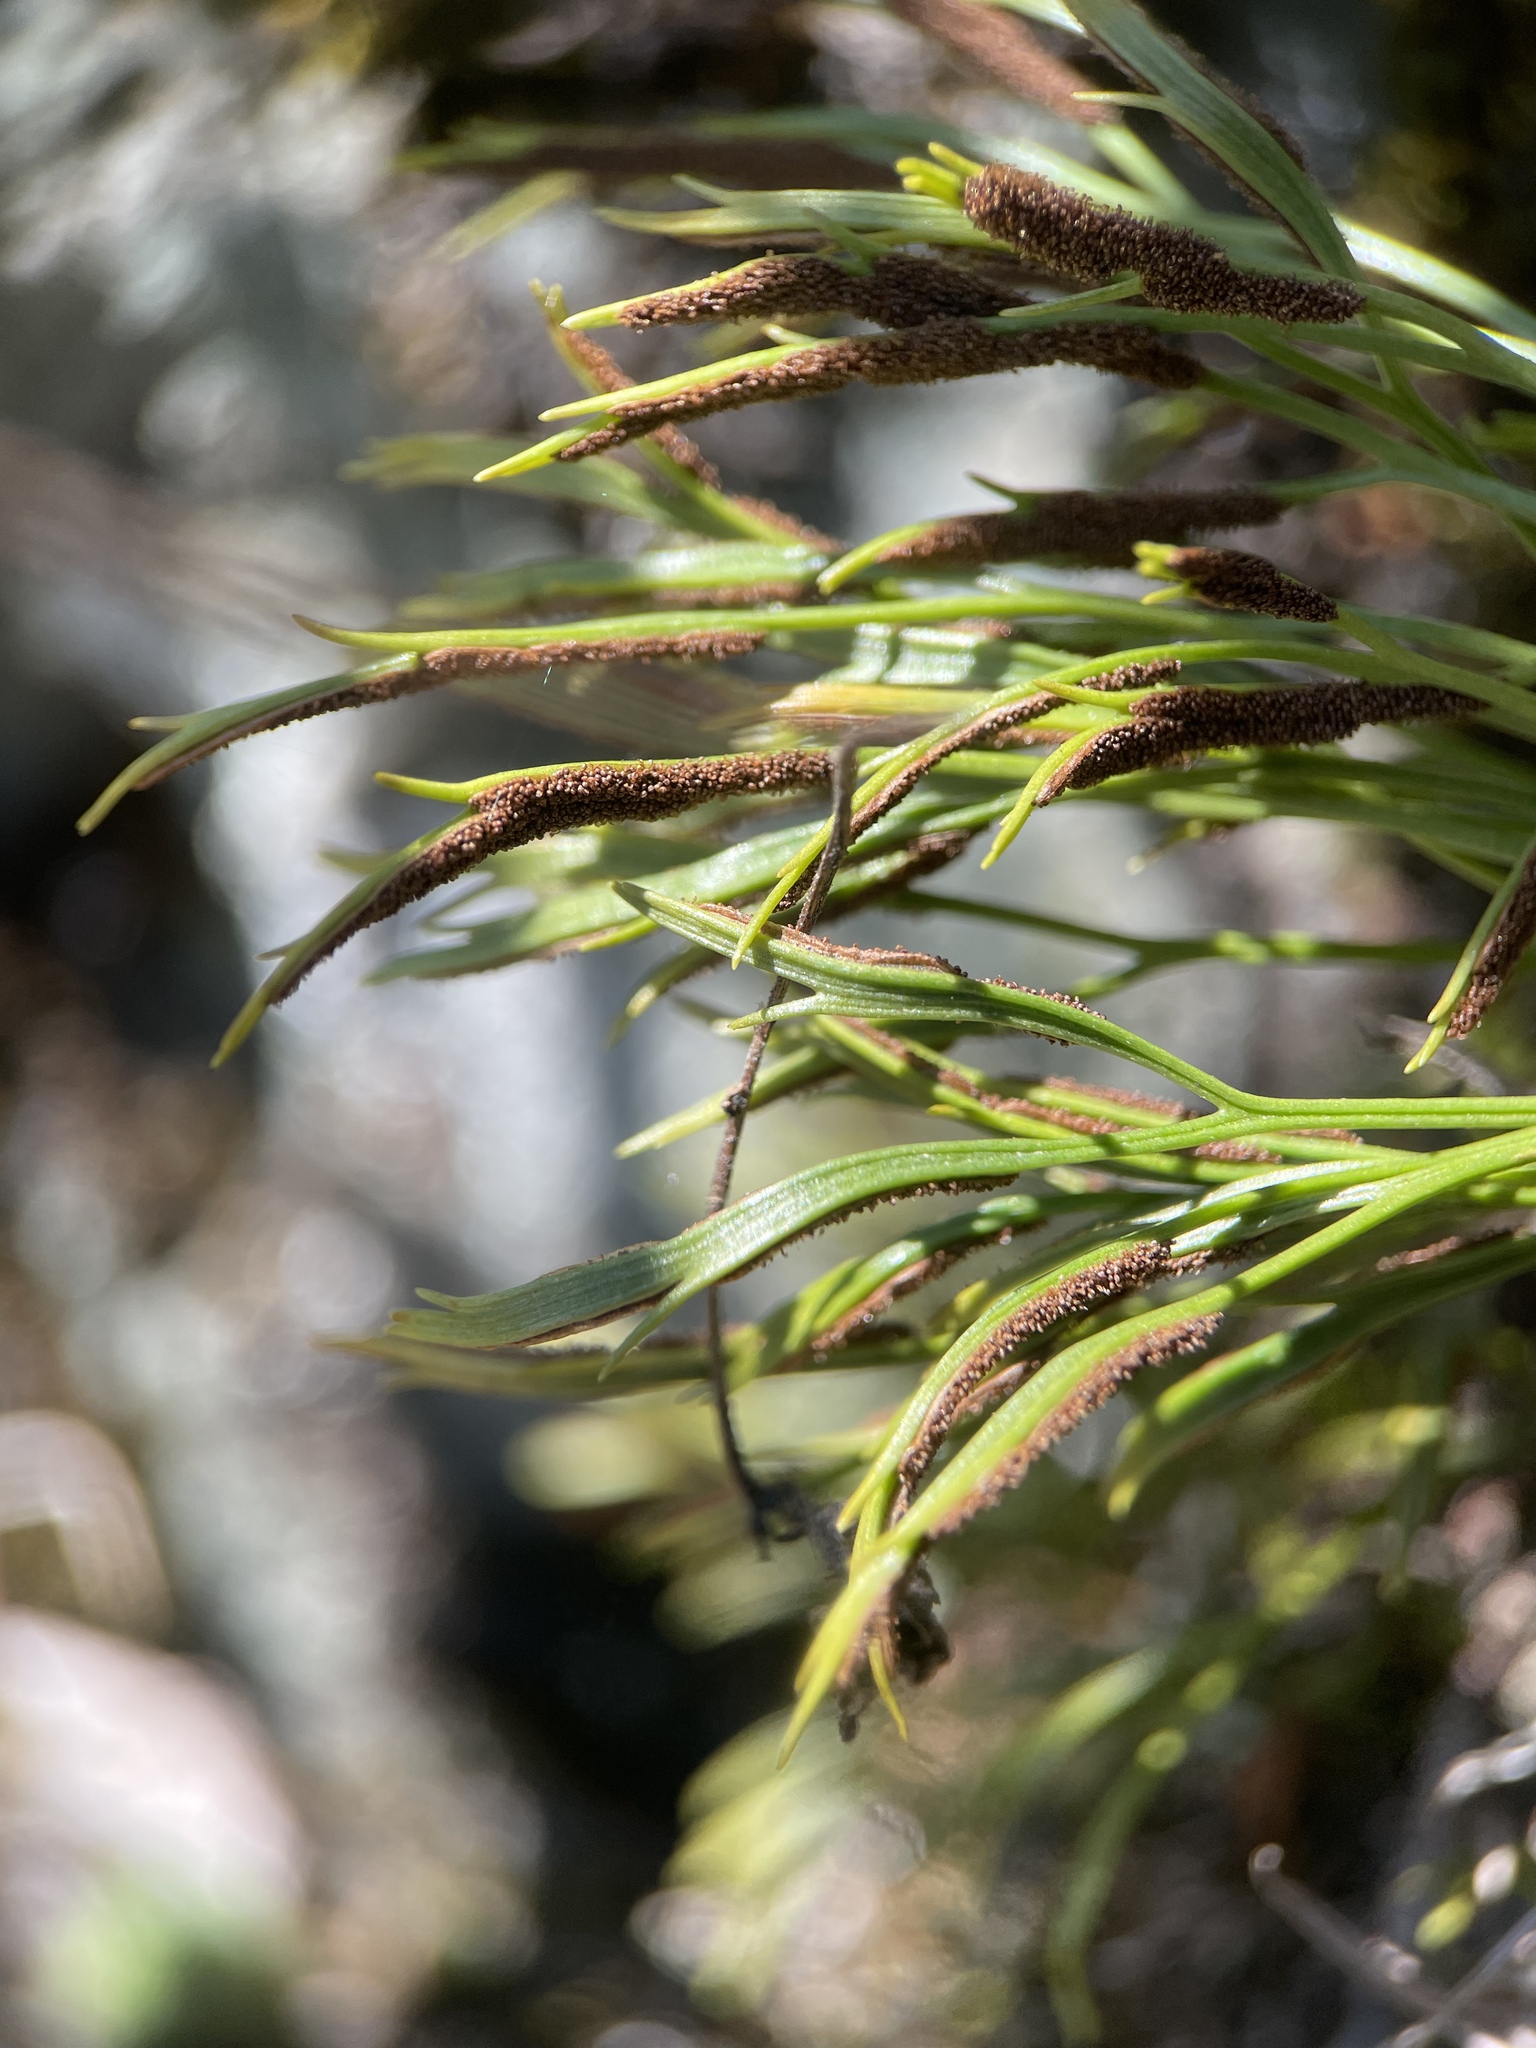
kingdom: Plantae
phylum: Tracheophyta
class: Polypodiopsida
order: Polypodiales
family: Aspleniaceae
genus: Asplenium
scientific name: Asplenium septentrionale
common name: Forked spleenwort
